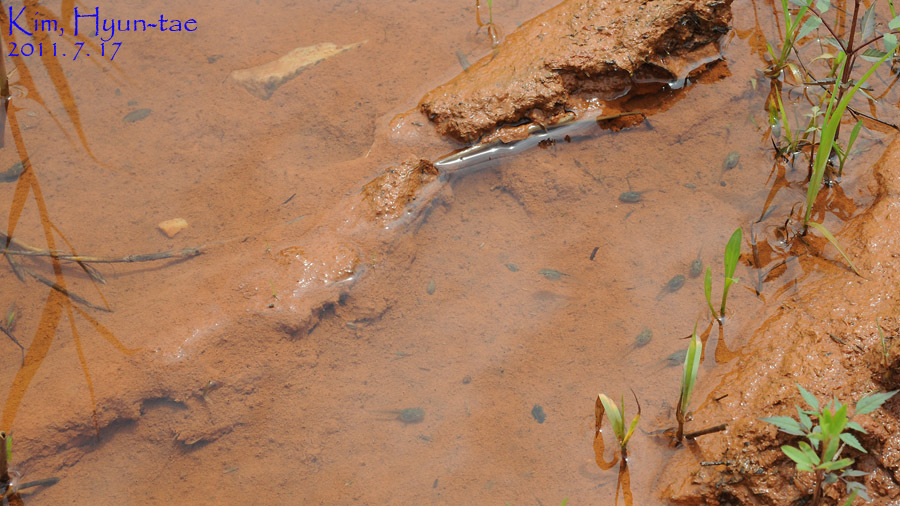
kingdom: Animalia
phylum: Chordata
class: Amphibia
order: Anura
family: Hylidae
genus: Dryophytes
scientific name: Dryophytes japonicus
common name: Japanese treefrog
